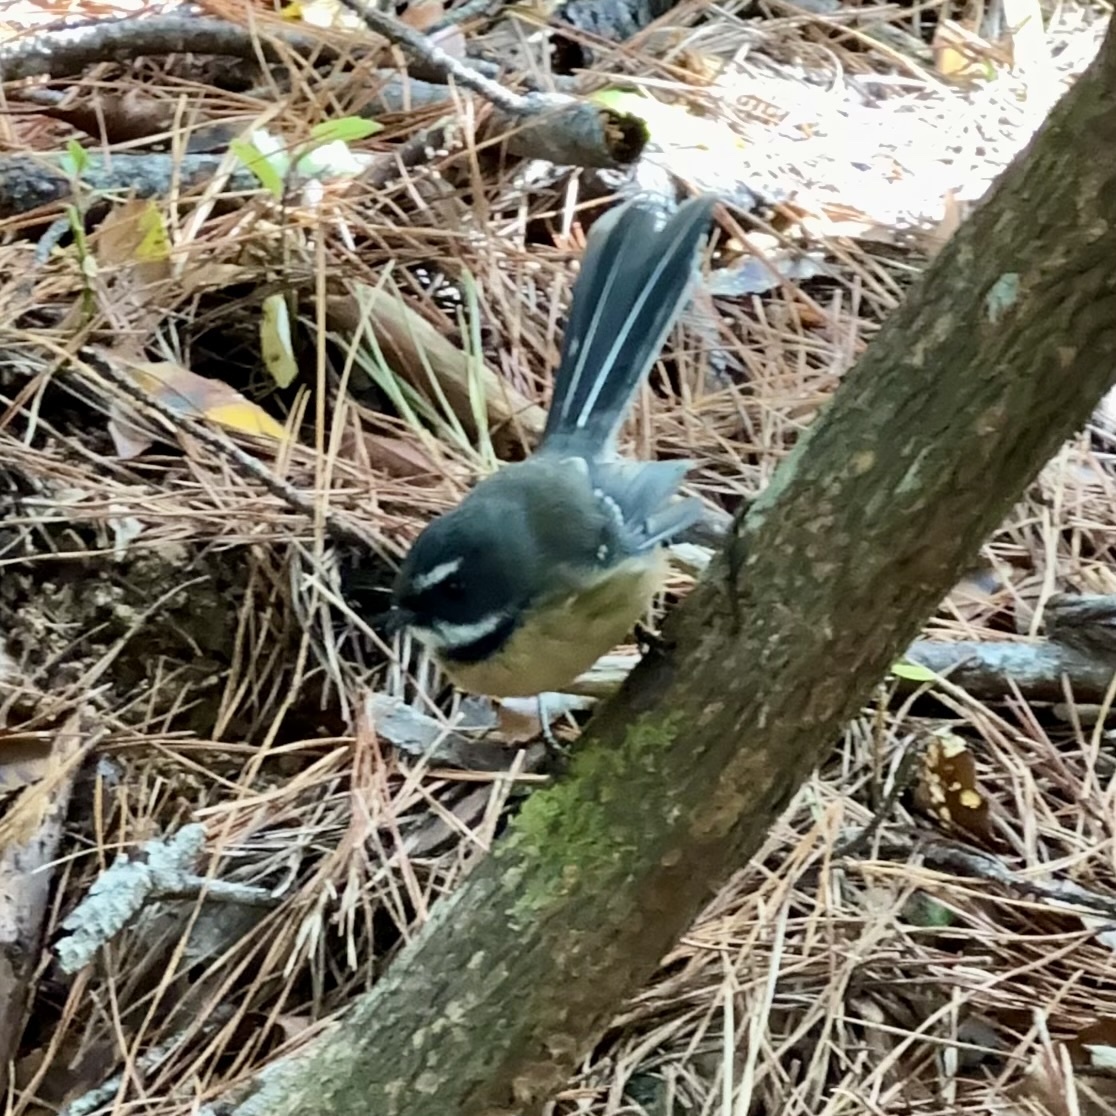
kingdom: Animalia
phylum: Chordata
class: Aves
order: Passeriformes
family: Rhipiduridae
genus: Rhipidura
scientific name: Rhipidura fuliginosa
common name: New zealand fantail
